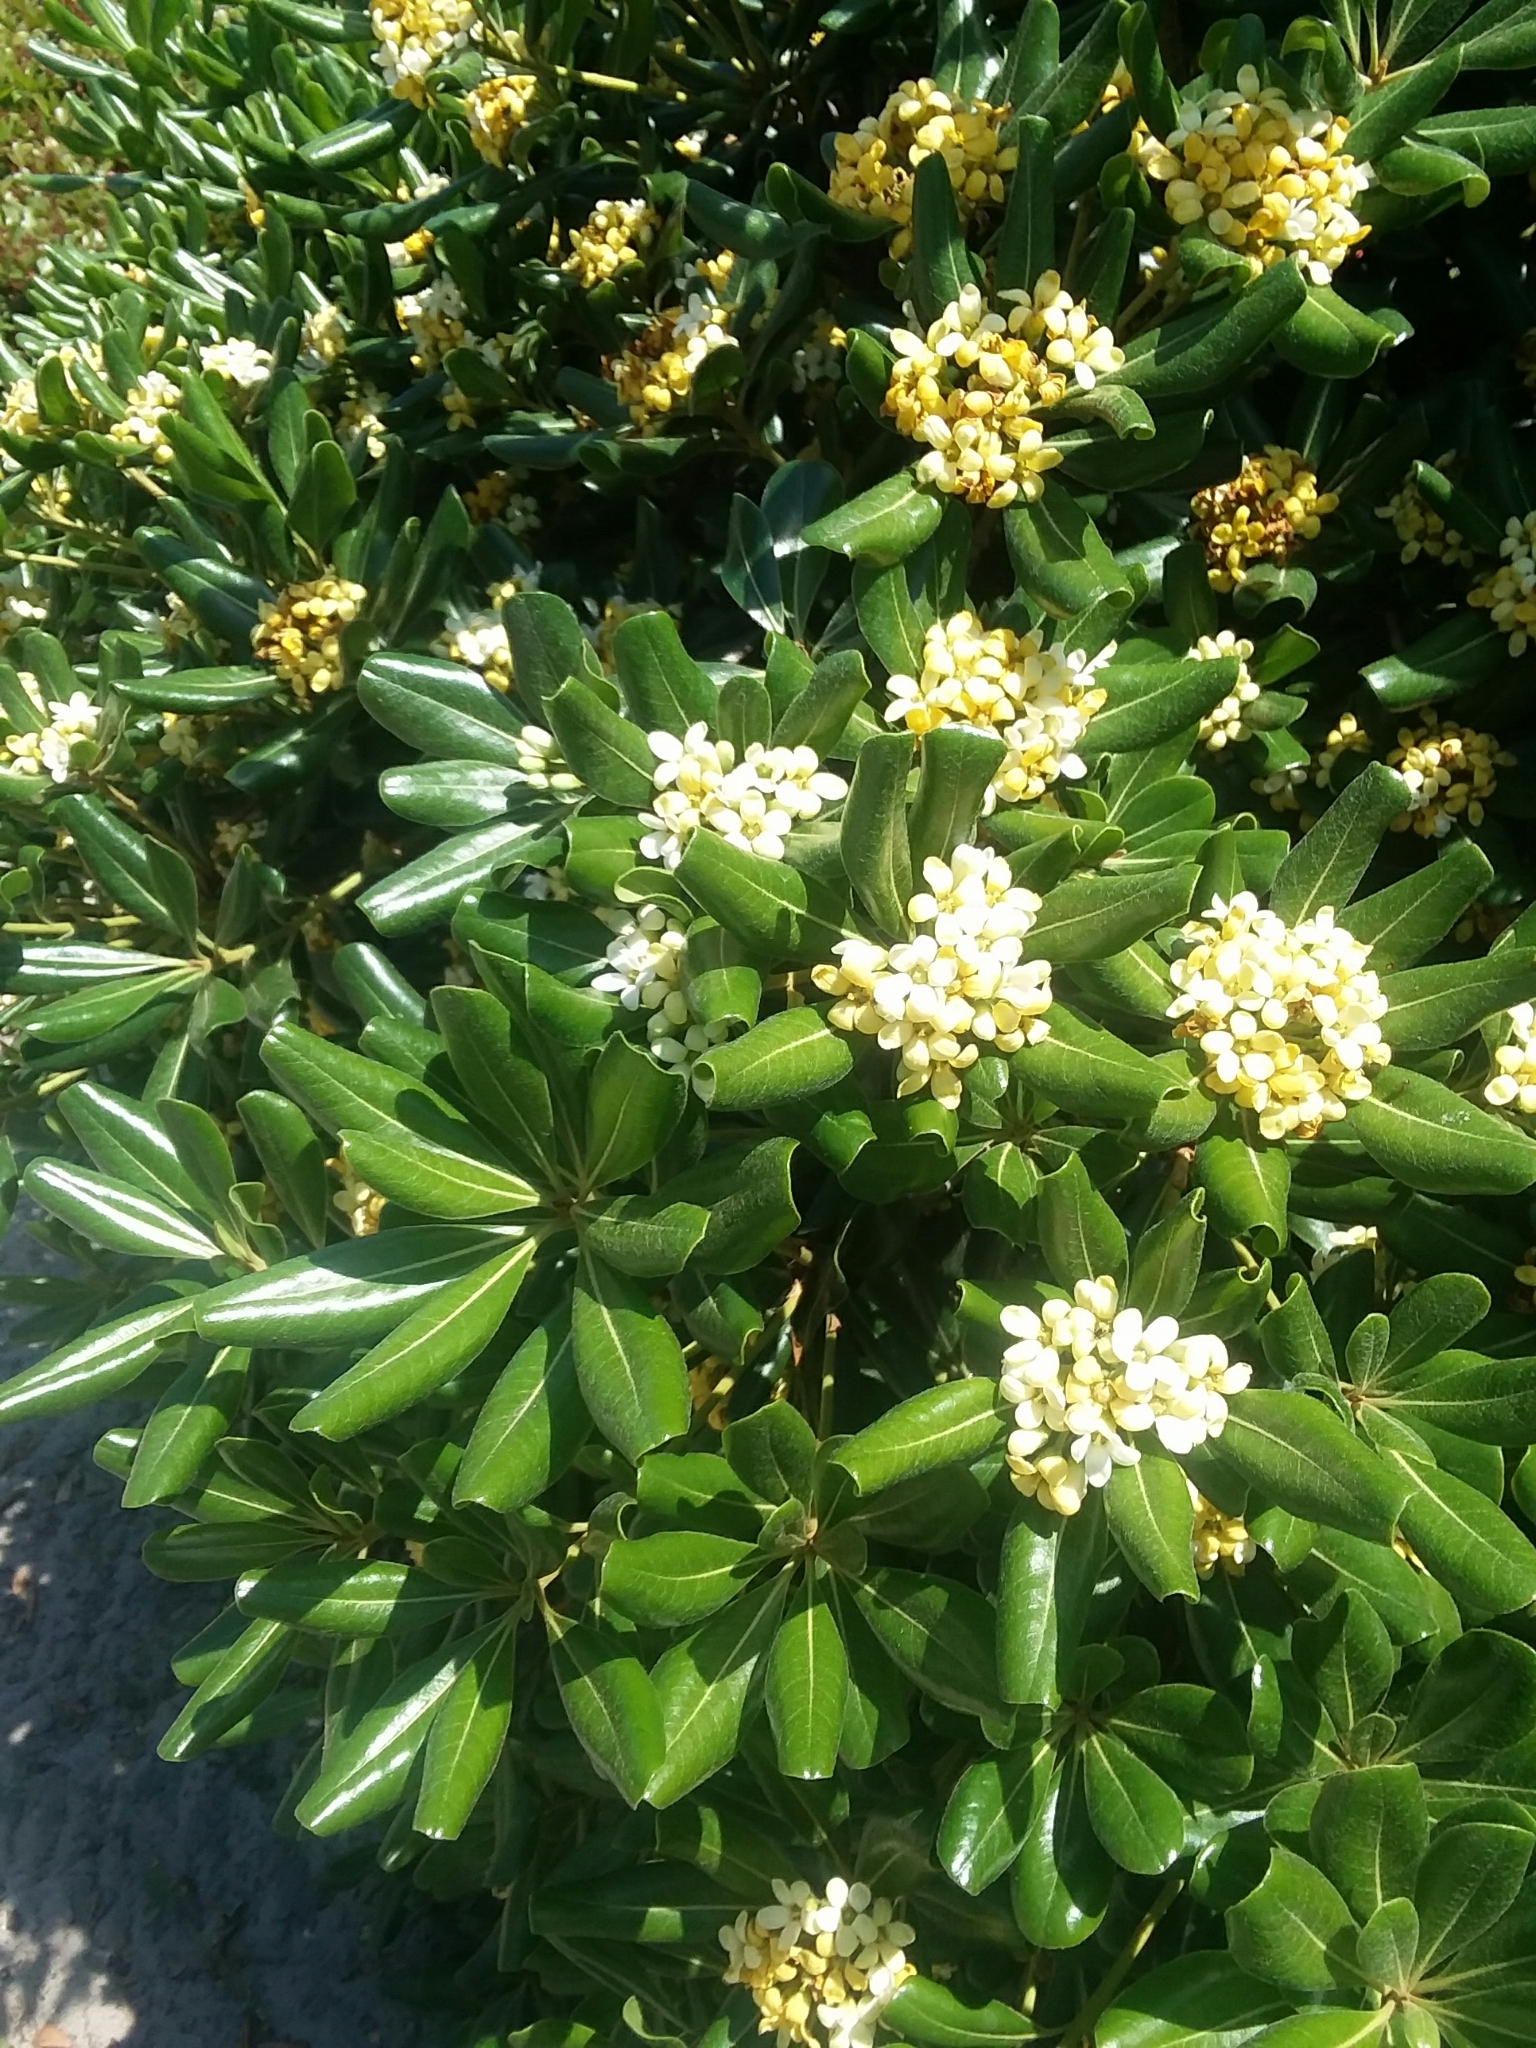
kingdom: Plantae
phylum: Tracheophyta
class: Magnoliopsida
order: Apiales
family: Pittosporaceae
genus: Pittosporum
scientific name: Pittosporum tobira
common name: Japanese cheesewood
